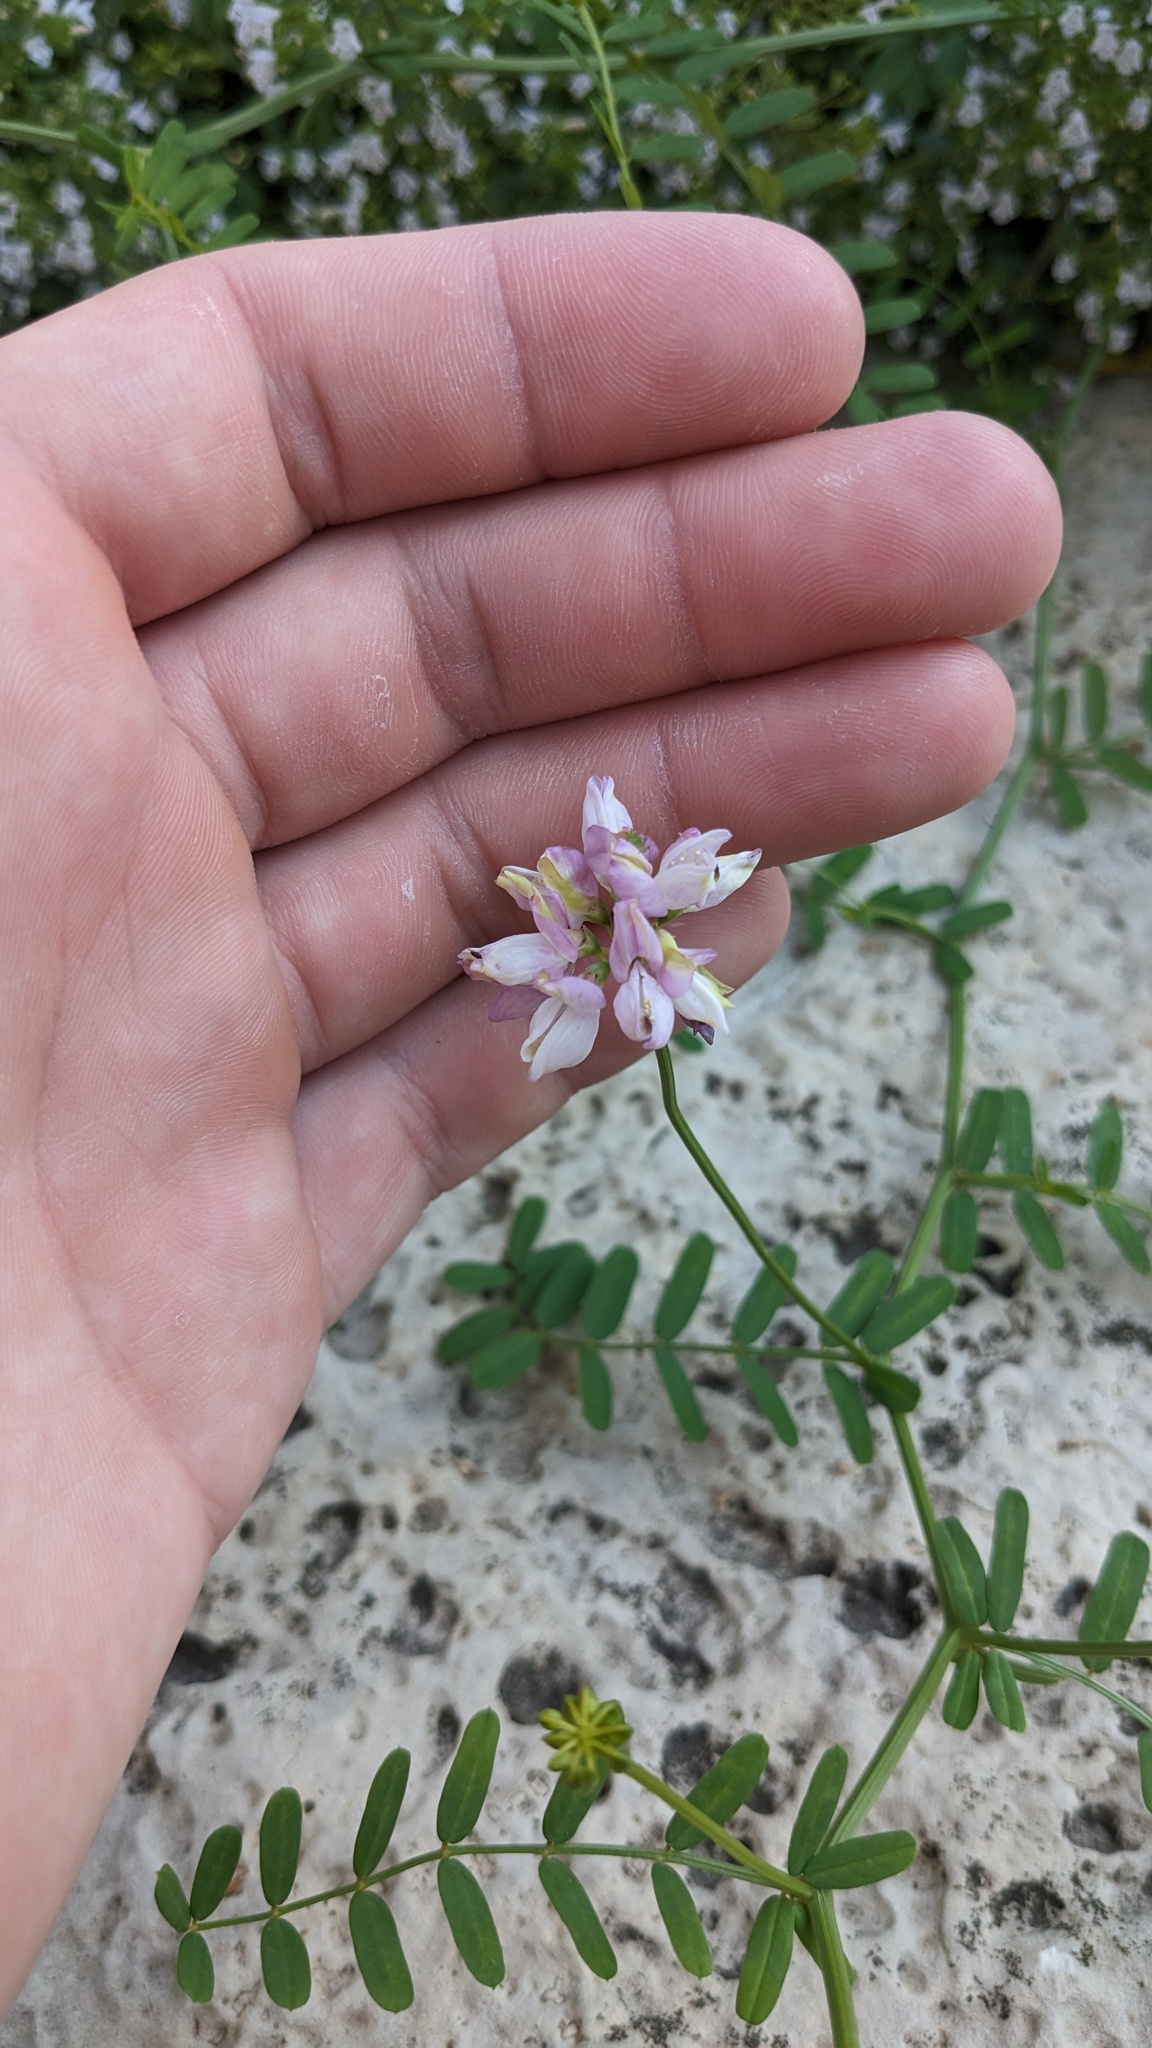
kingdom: Plantae
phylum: Tracheophyta
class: Magnoliopsida
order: Fabales
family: Fabaceae
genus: Coronilla
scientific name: Coronilla varia
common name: Crownvetch
